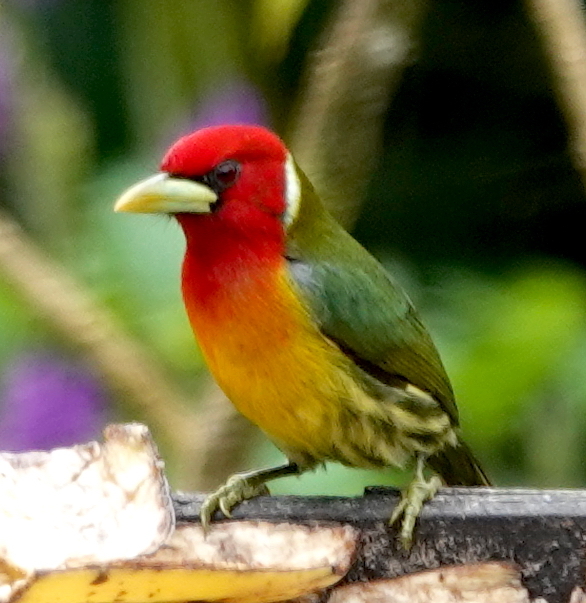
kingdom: Animalia
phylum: Chordata
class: Aves
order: Piciformes
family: Capitonidae
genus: Eubucco
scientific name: Eubucco bourcierii
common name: Red-headed barbet
